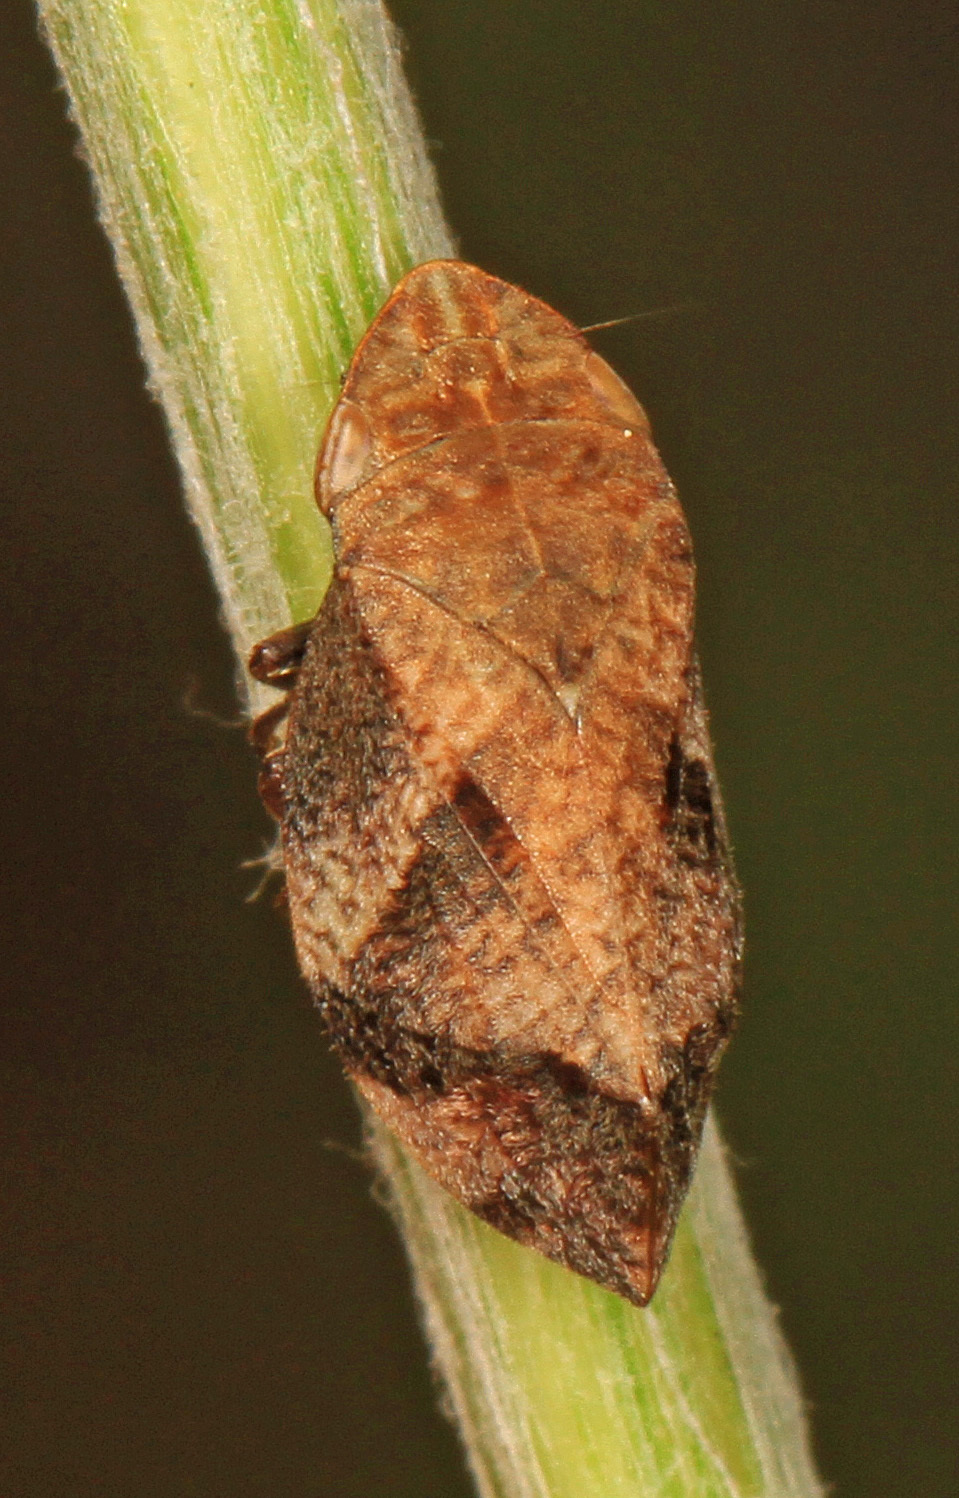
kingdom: Animalia
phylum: Arthropoda
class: Insecta
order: Hemiptera
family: Aphrophoridae
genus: Lepyronia
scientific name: Lepyronia quadrangularis
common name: Diamond-backed spittlebug
